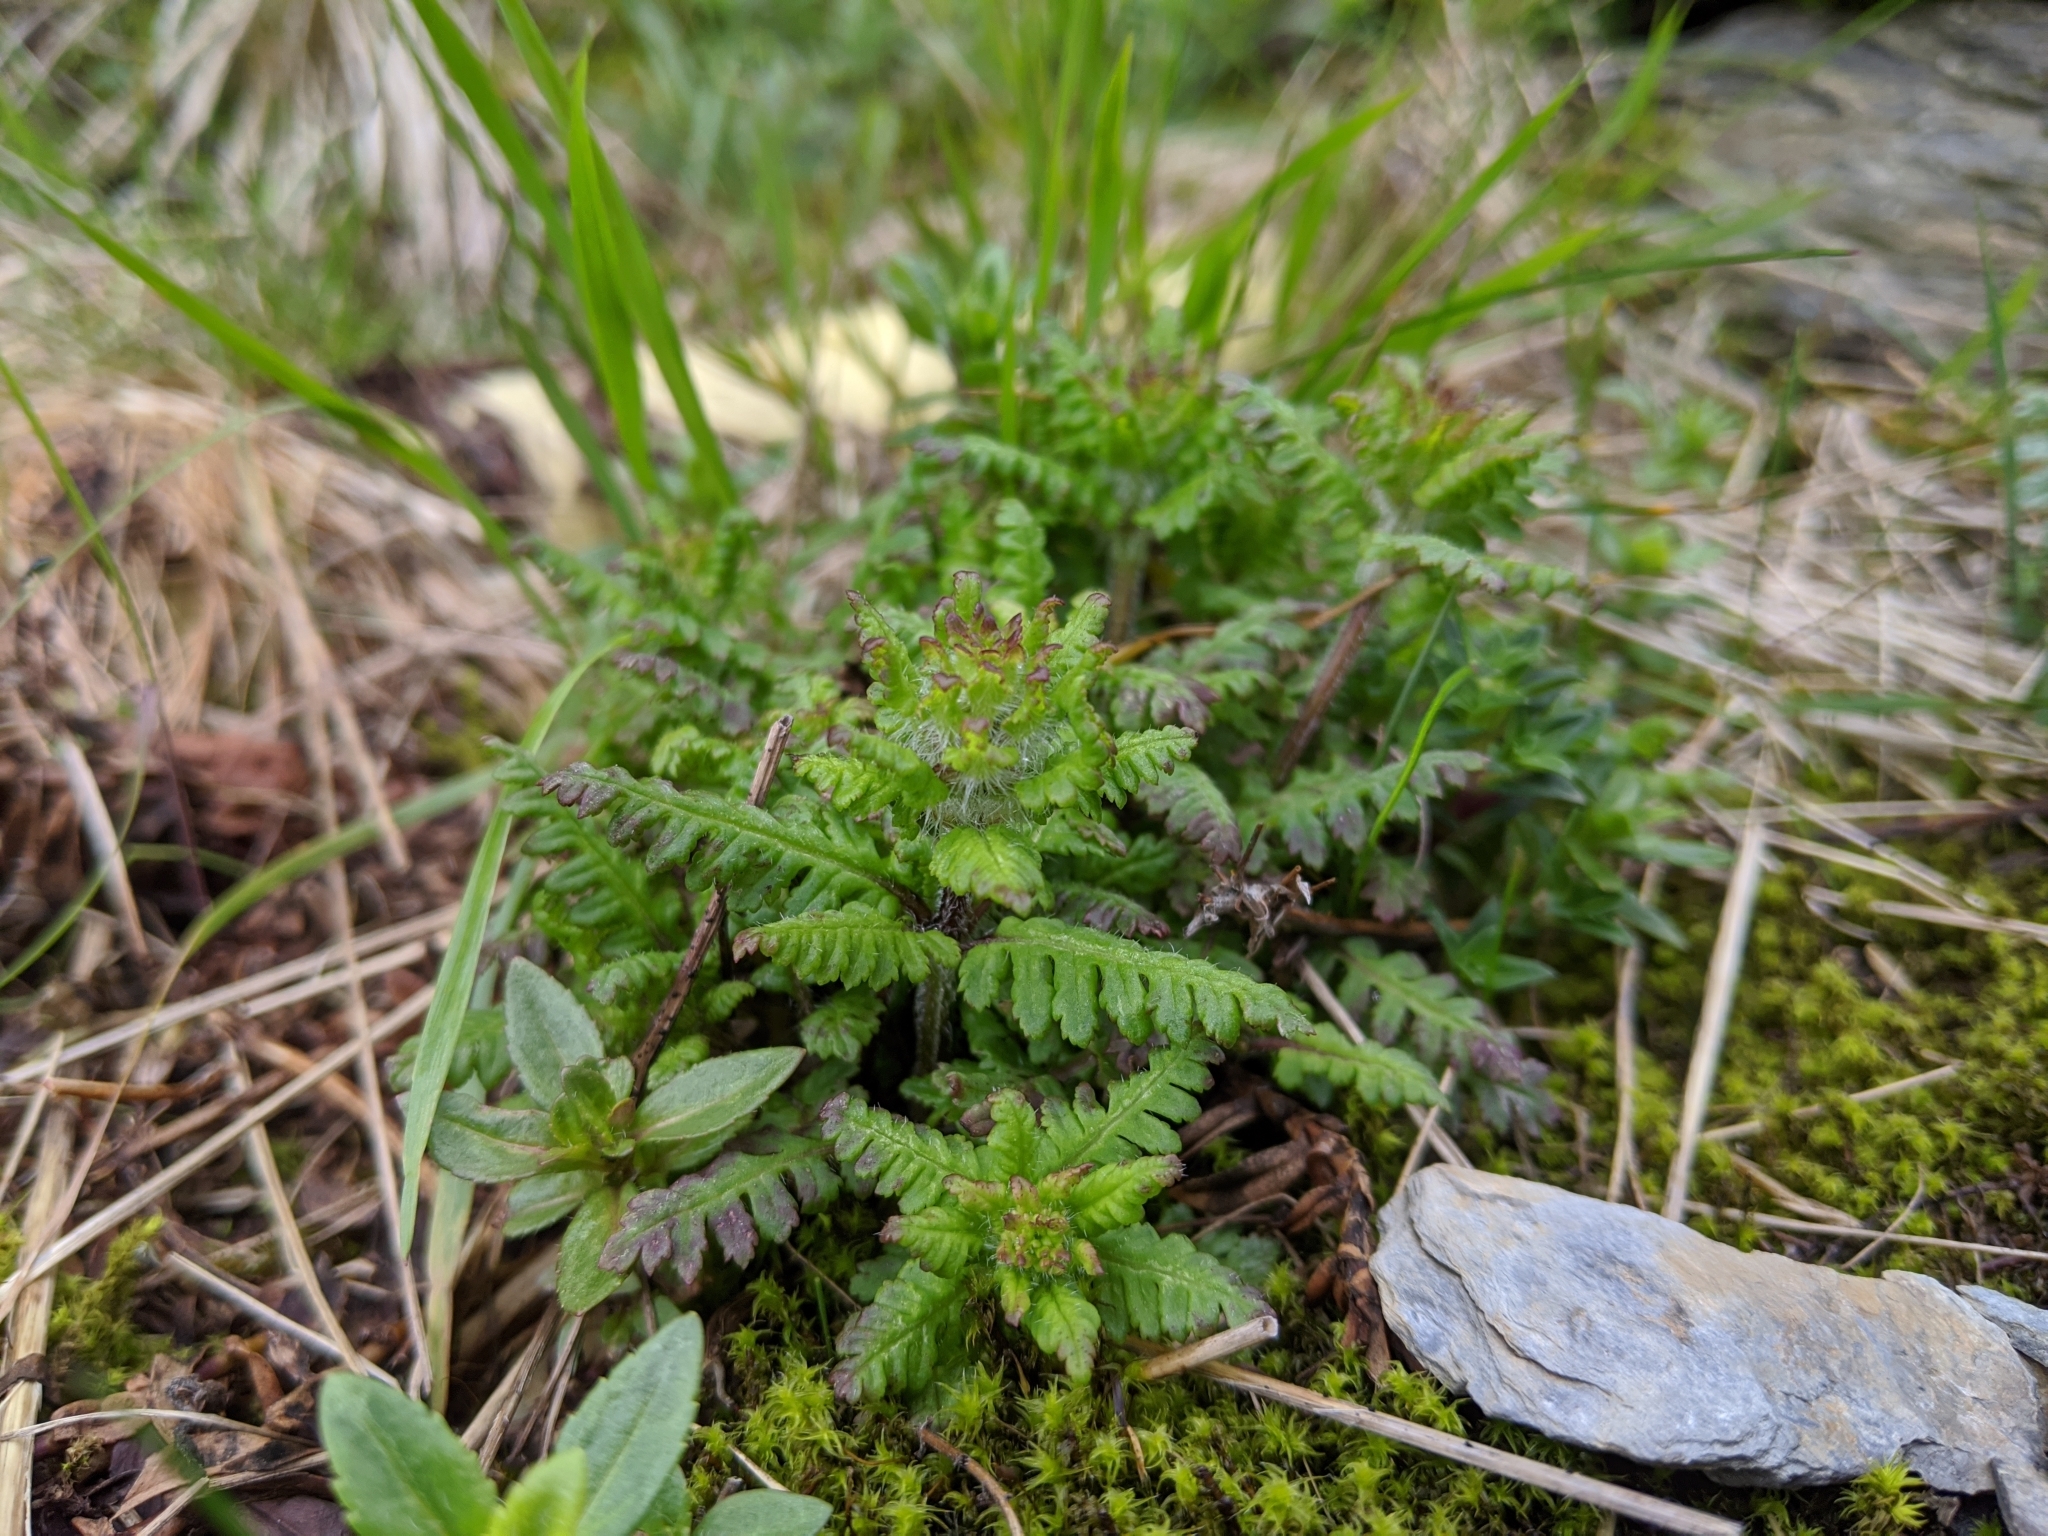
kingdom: Plantae
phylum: Tracheophyta
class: Magnoliopsida
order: Lamiales
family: Orobanchaceae
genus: Pedicularis
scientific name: Pedicularis refracta
